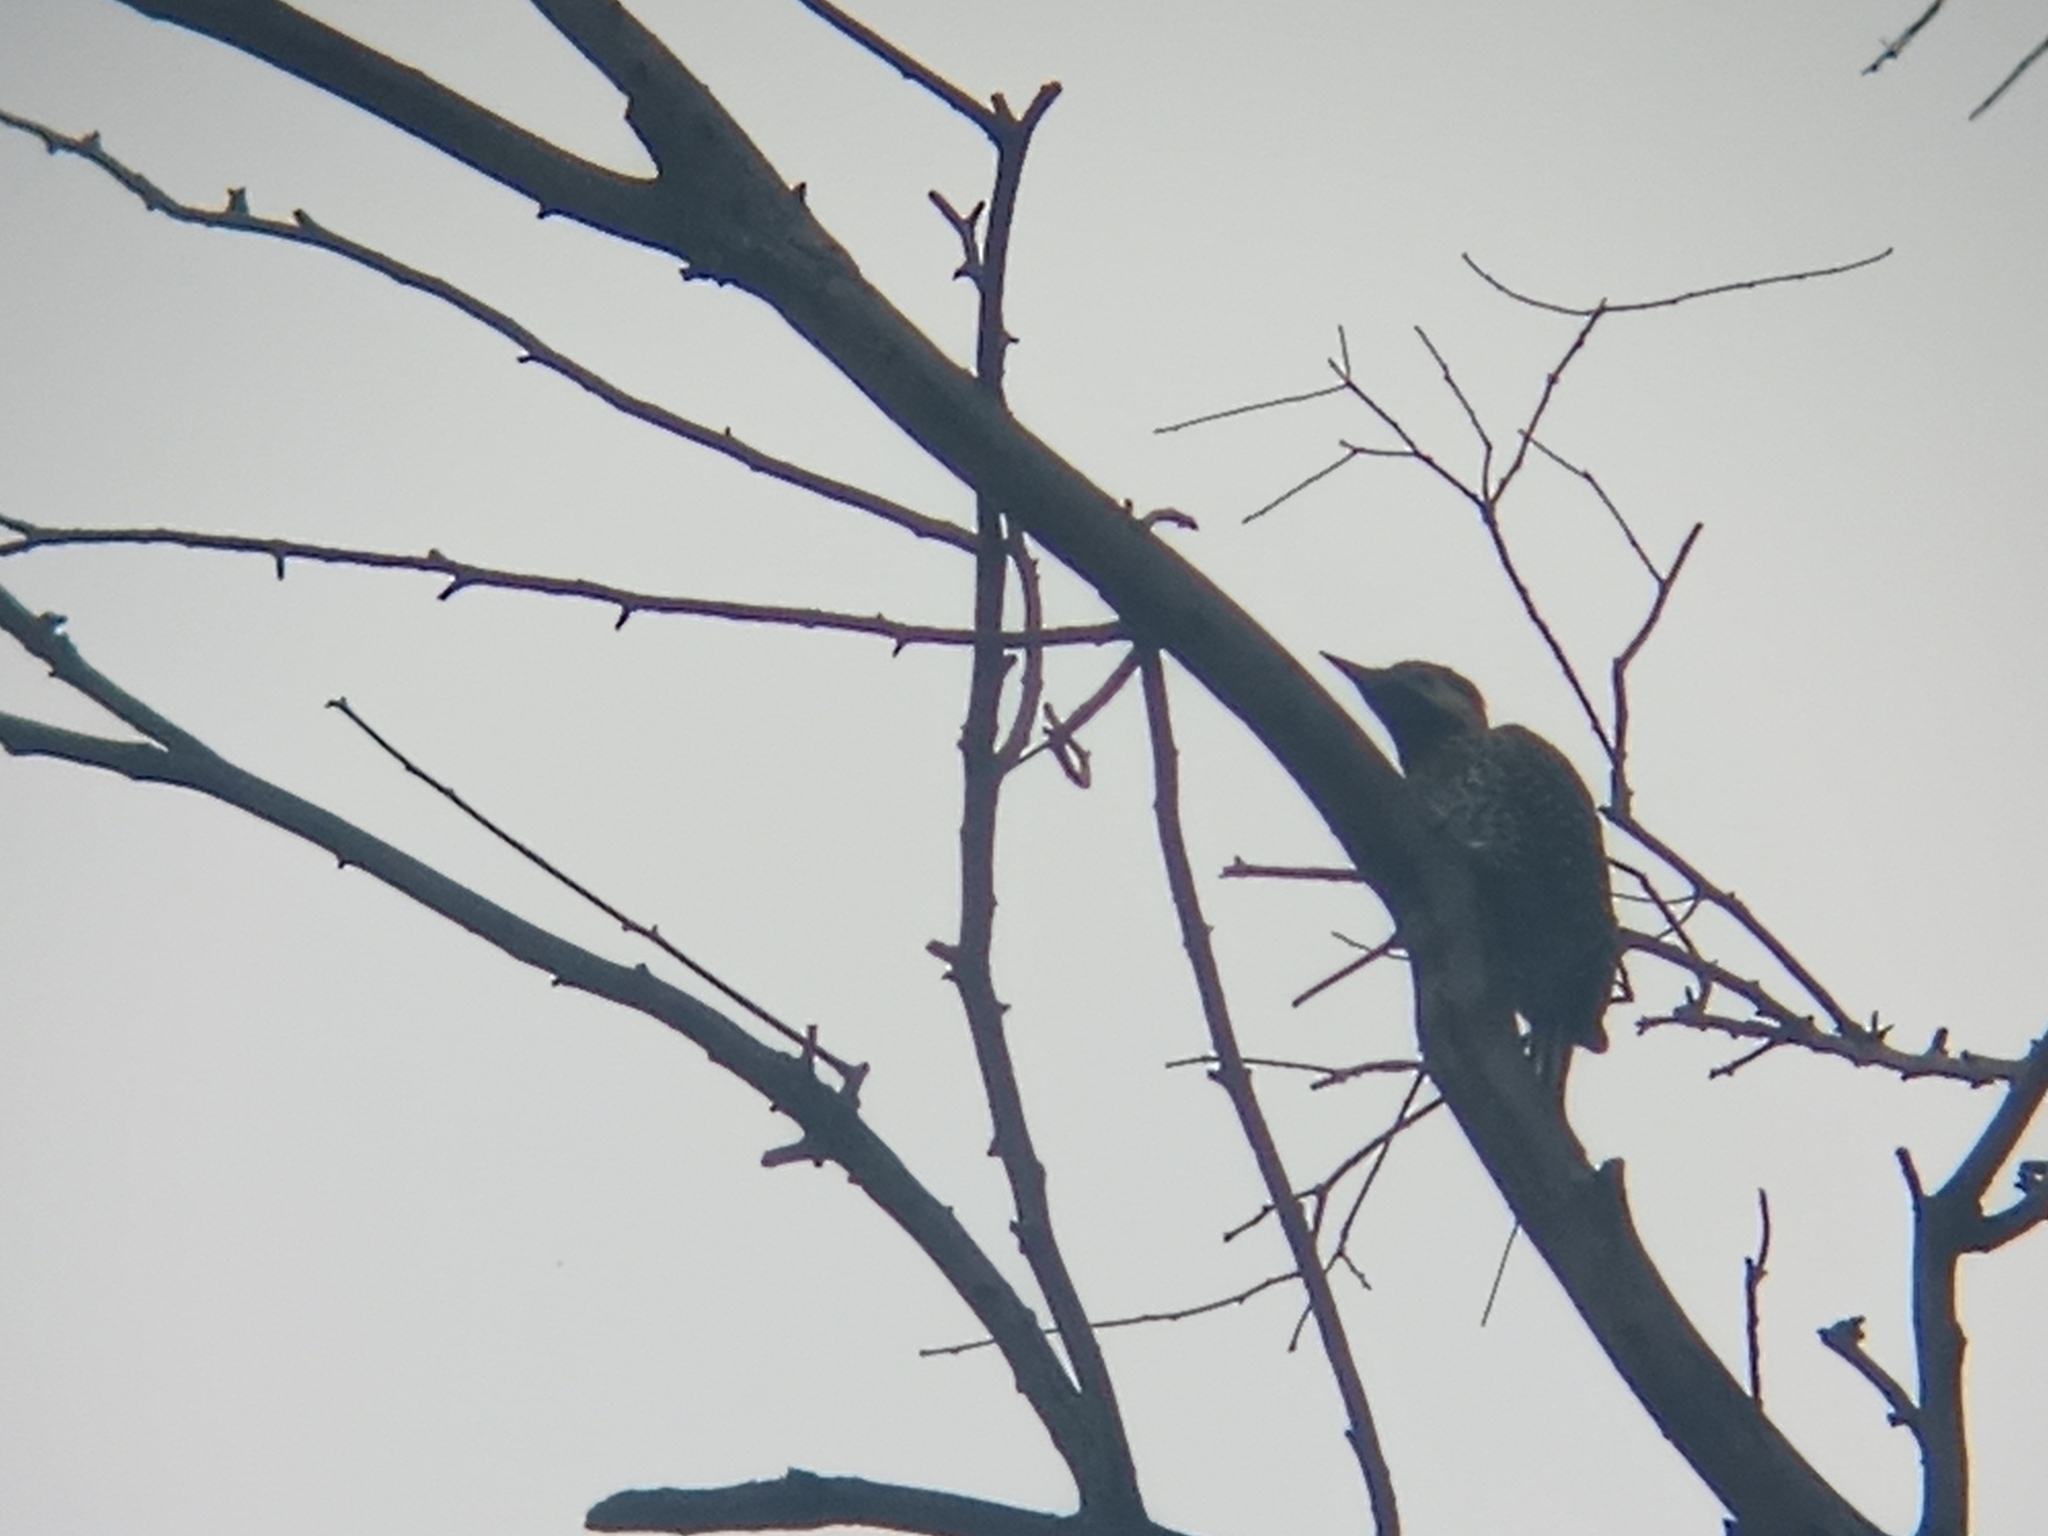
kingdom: Animalia
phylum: Chordata
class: Aves
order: Piciformes
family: Picidae
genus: Colaptes
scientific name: Colaptes melanochloros
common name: Green-barred woodpecker
